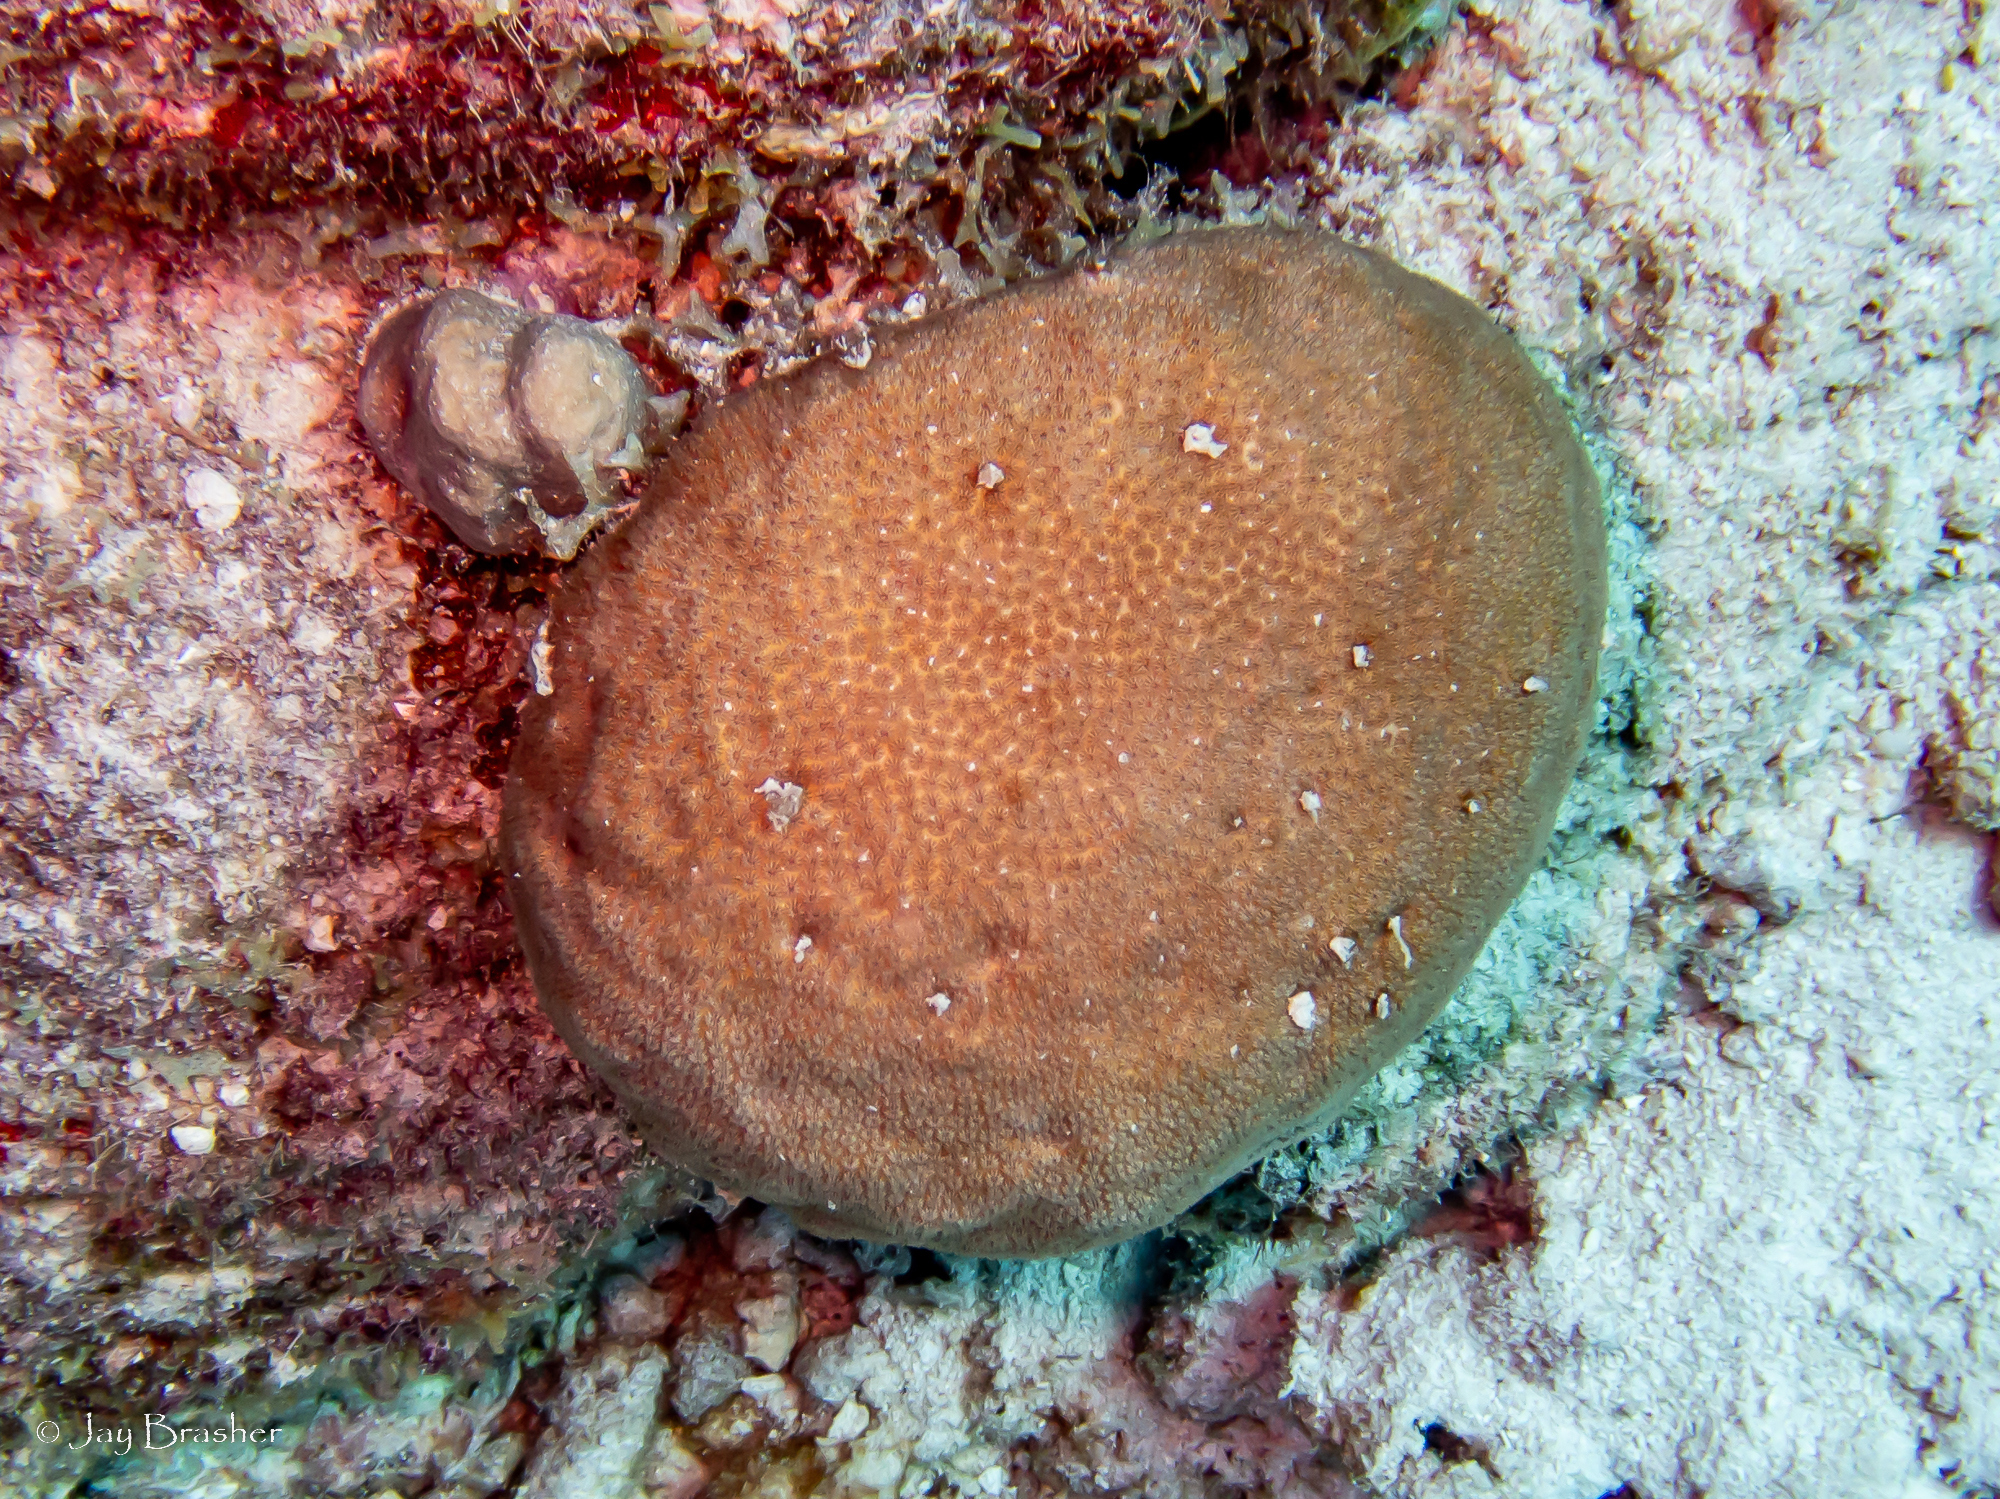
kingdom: Animalia
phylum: Cnidaria
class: Anthozoa
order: Scleractinia
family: Astrocoeniidae
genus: Stephanocoenia
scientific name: Stephanocoenia intersepta
